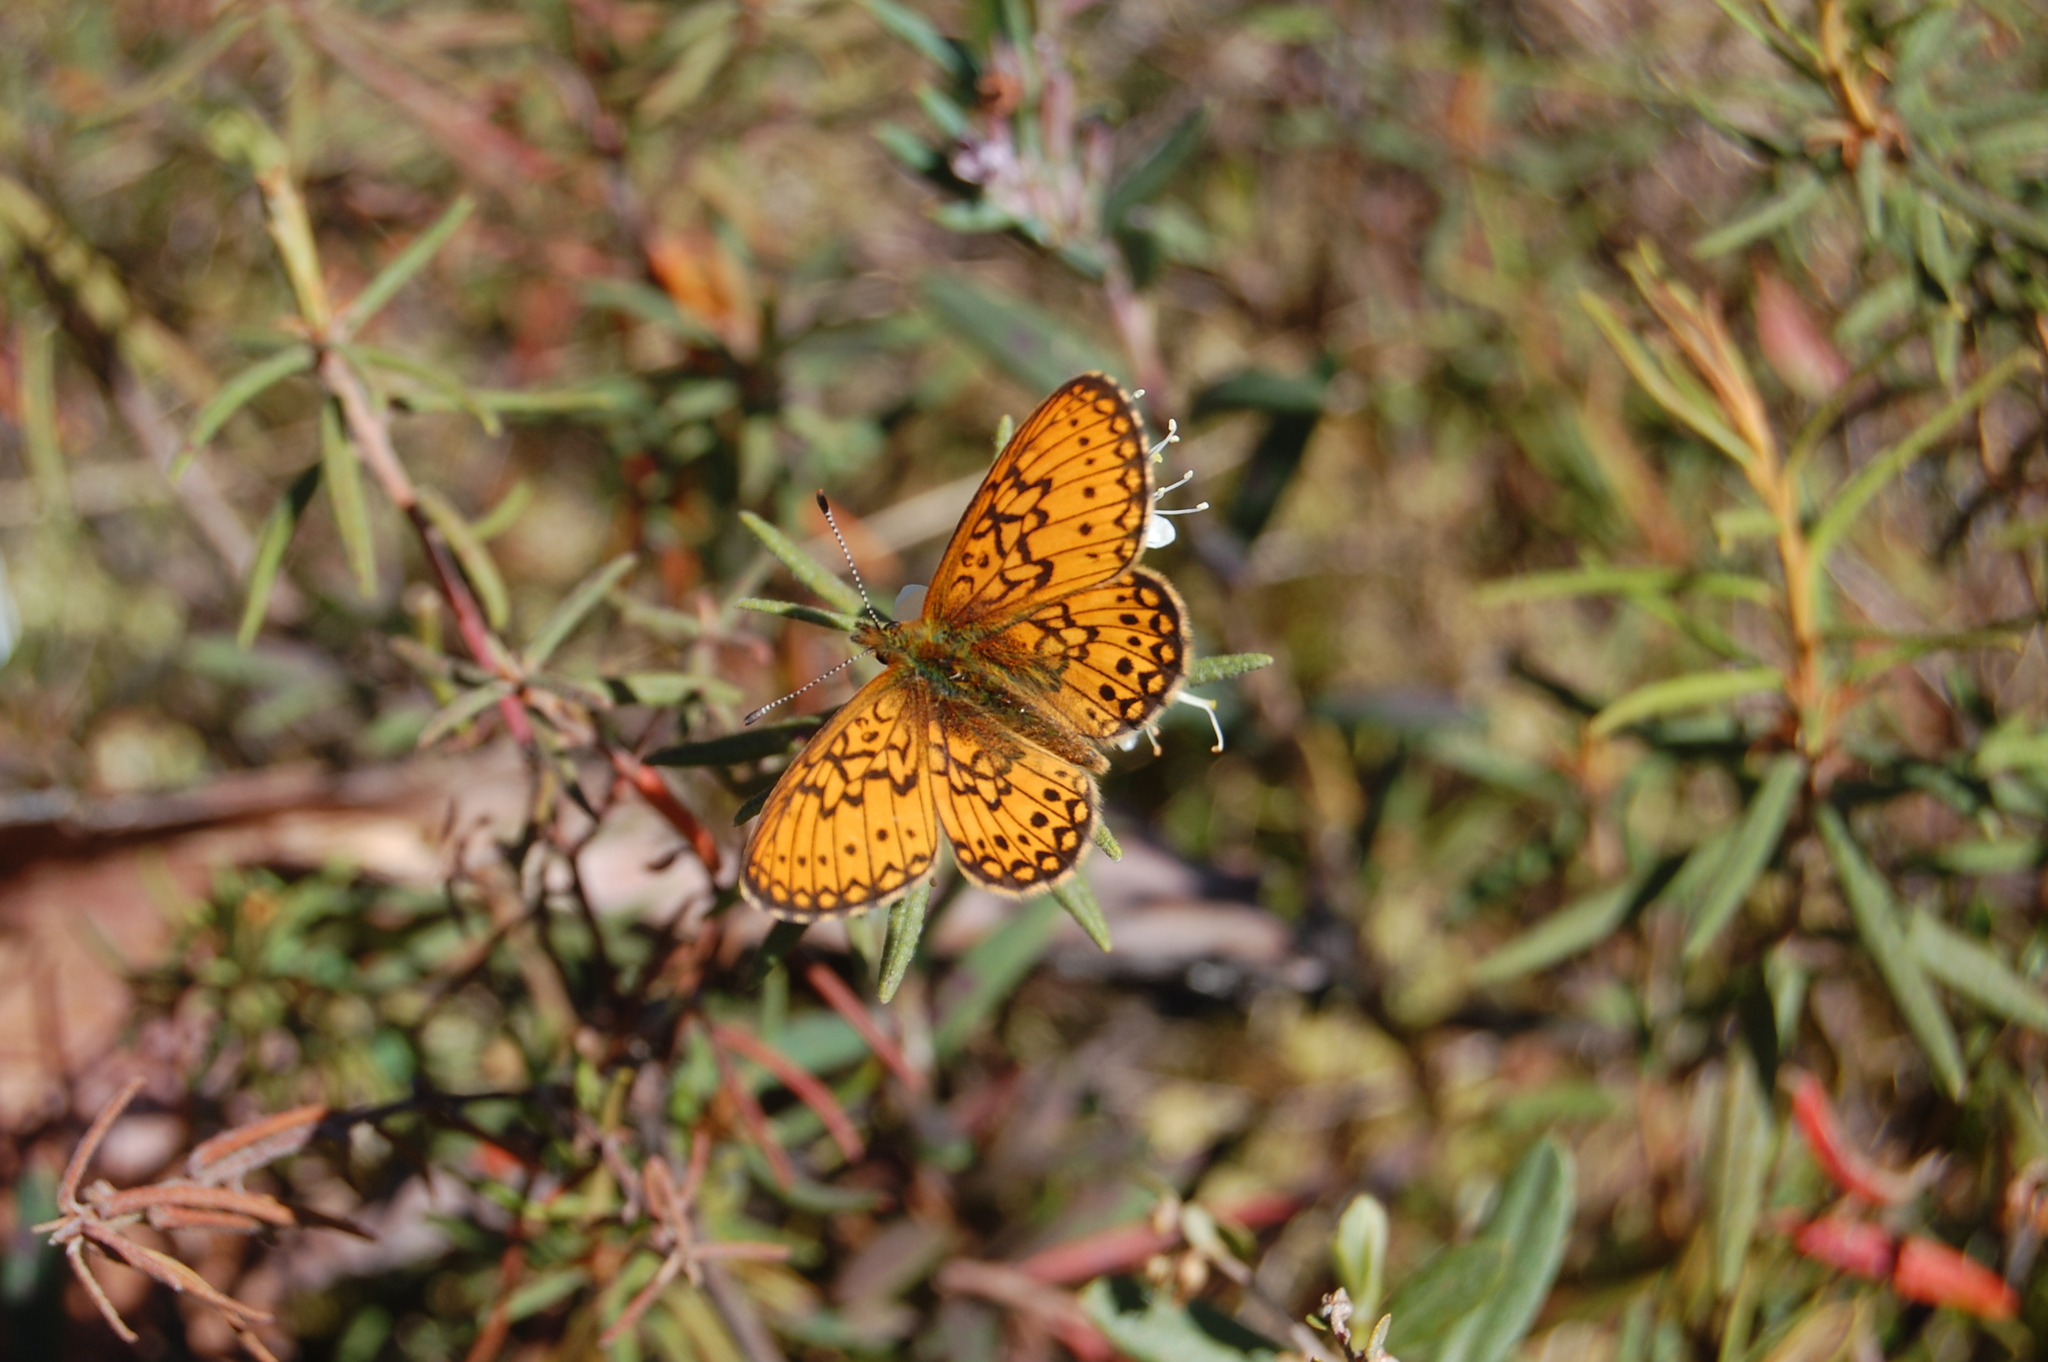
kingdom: Animalia
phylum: Arthropoda
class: Insecta
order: Lepidoptera
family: Nymphalidae
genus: Boloria
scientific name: Boloria eunomia
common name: Bog fritillary
